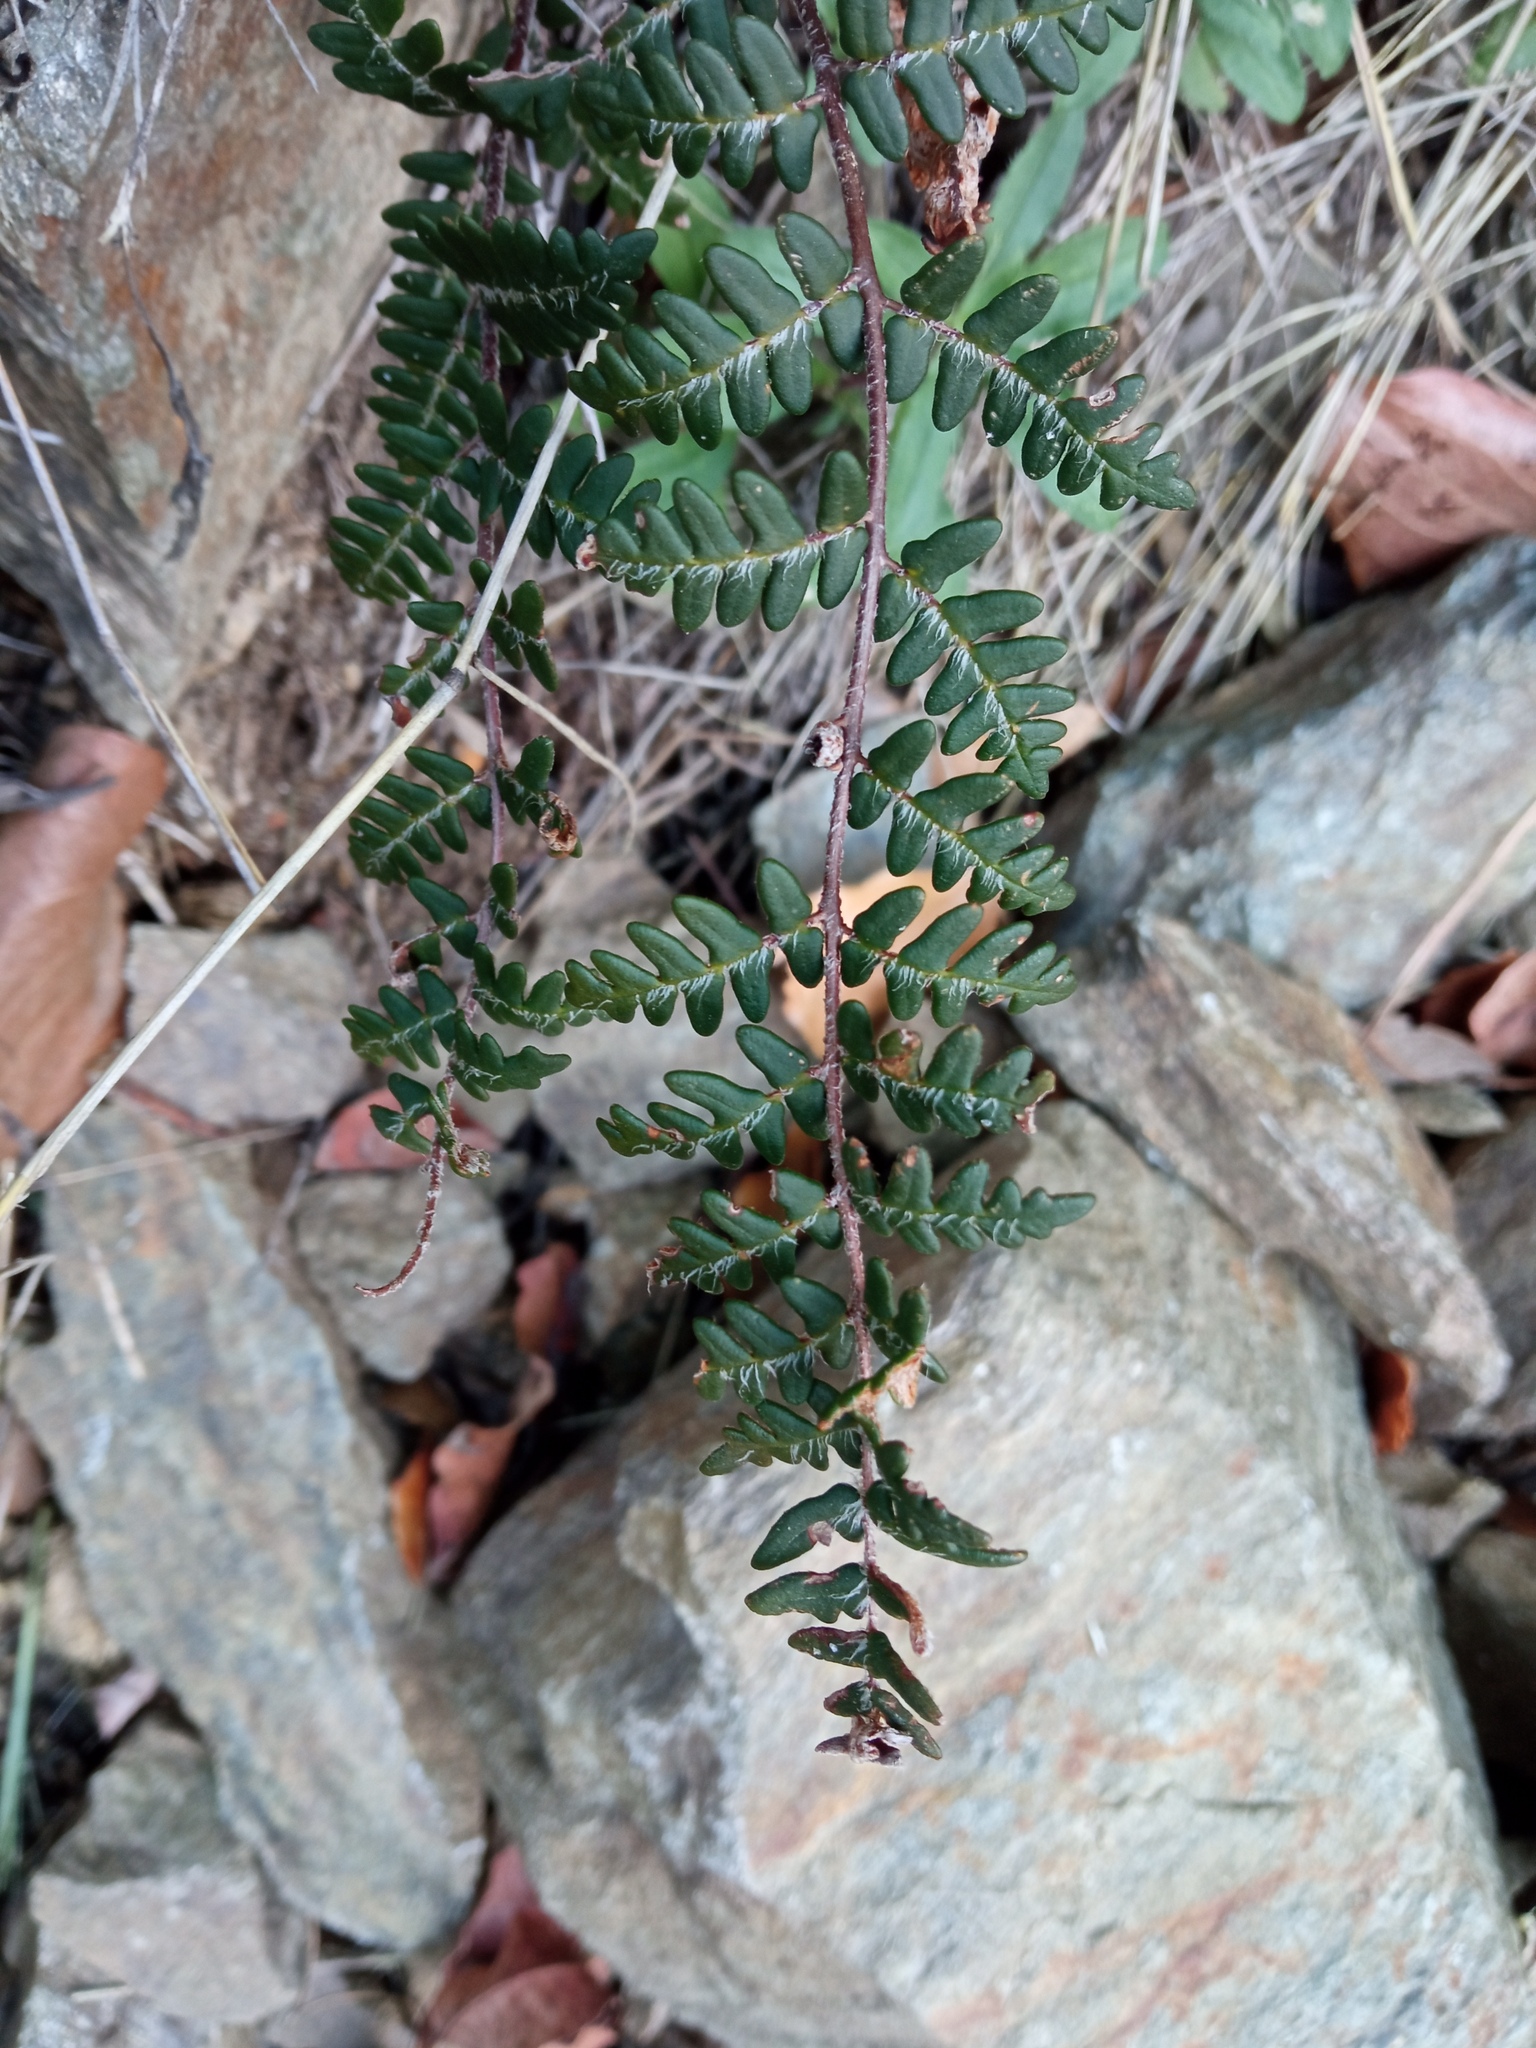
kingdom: Plantae
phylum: Tracheophyta
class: Polypodiopsida
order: Polypodiales
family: Pteridaceae
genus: Paragymnopteris
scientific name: Paragymnopteris marantae
